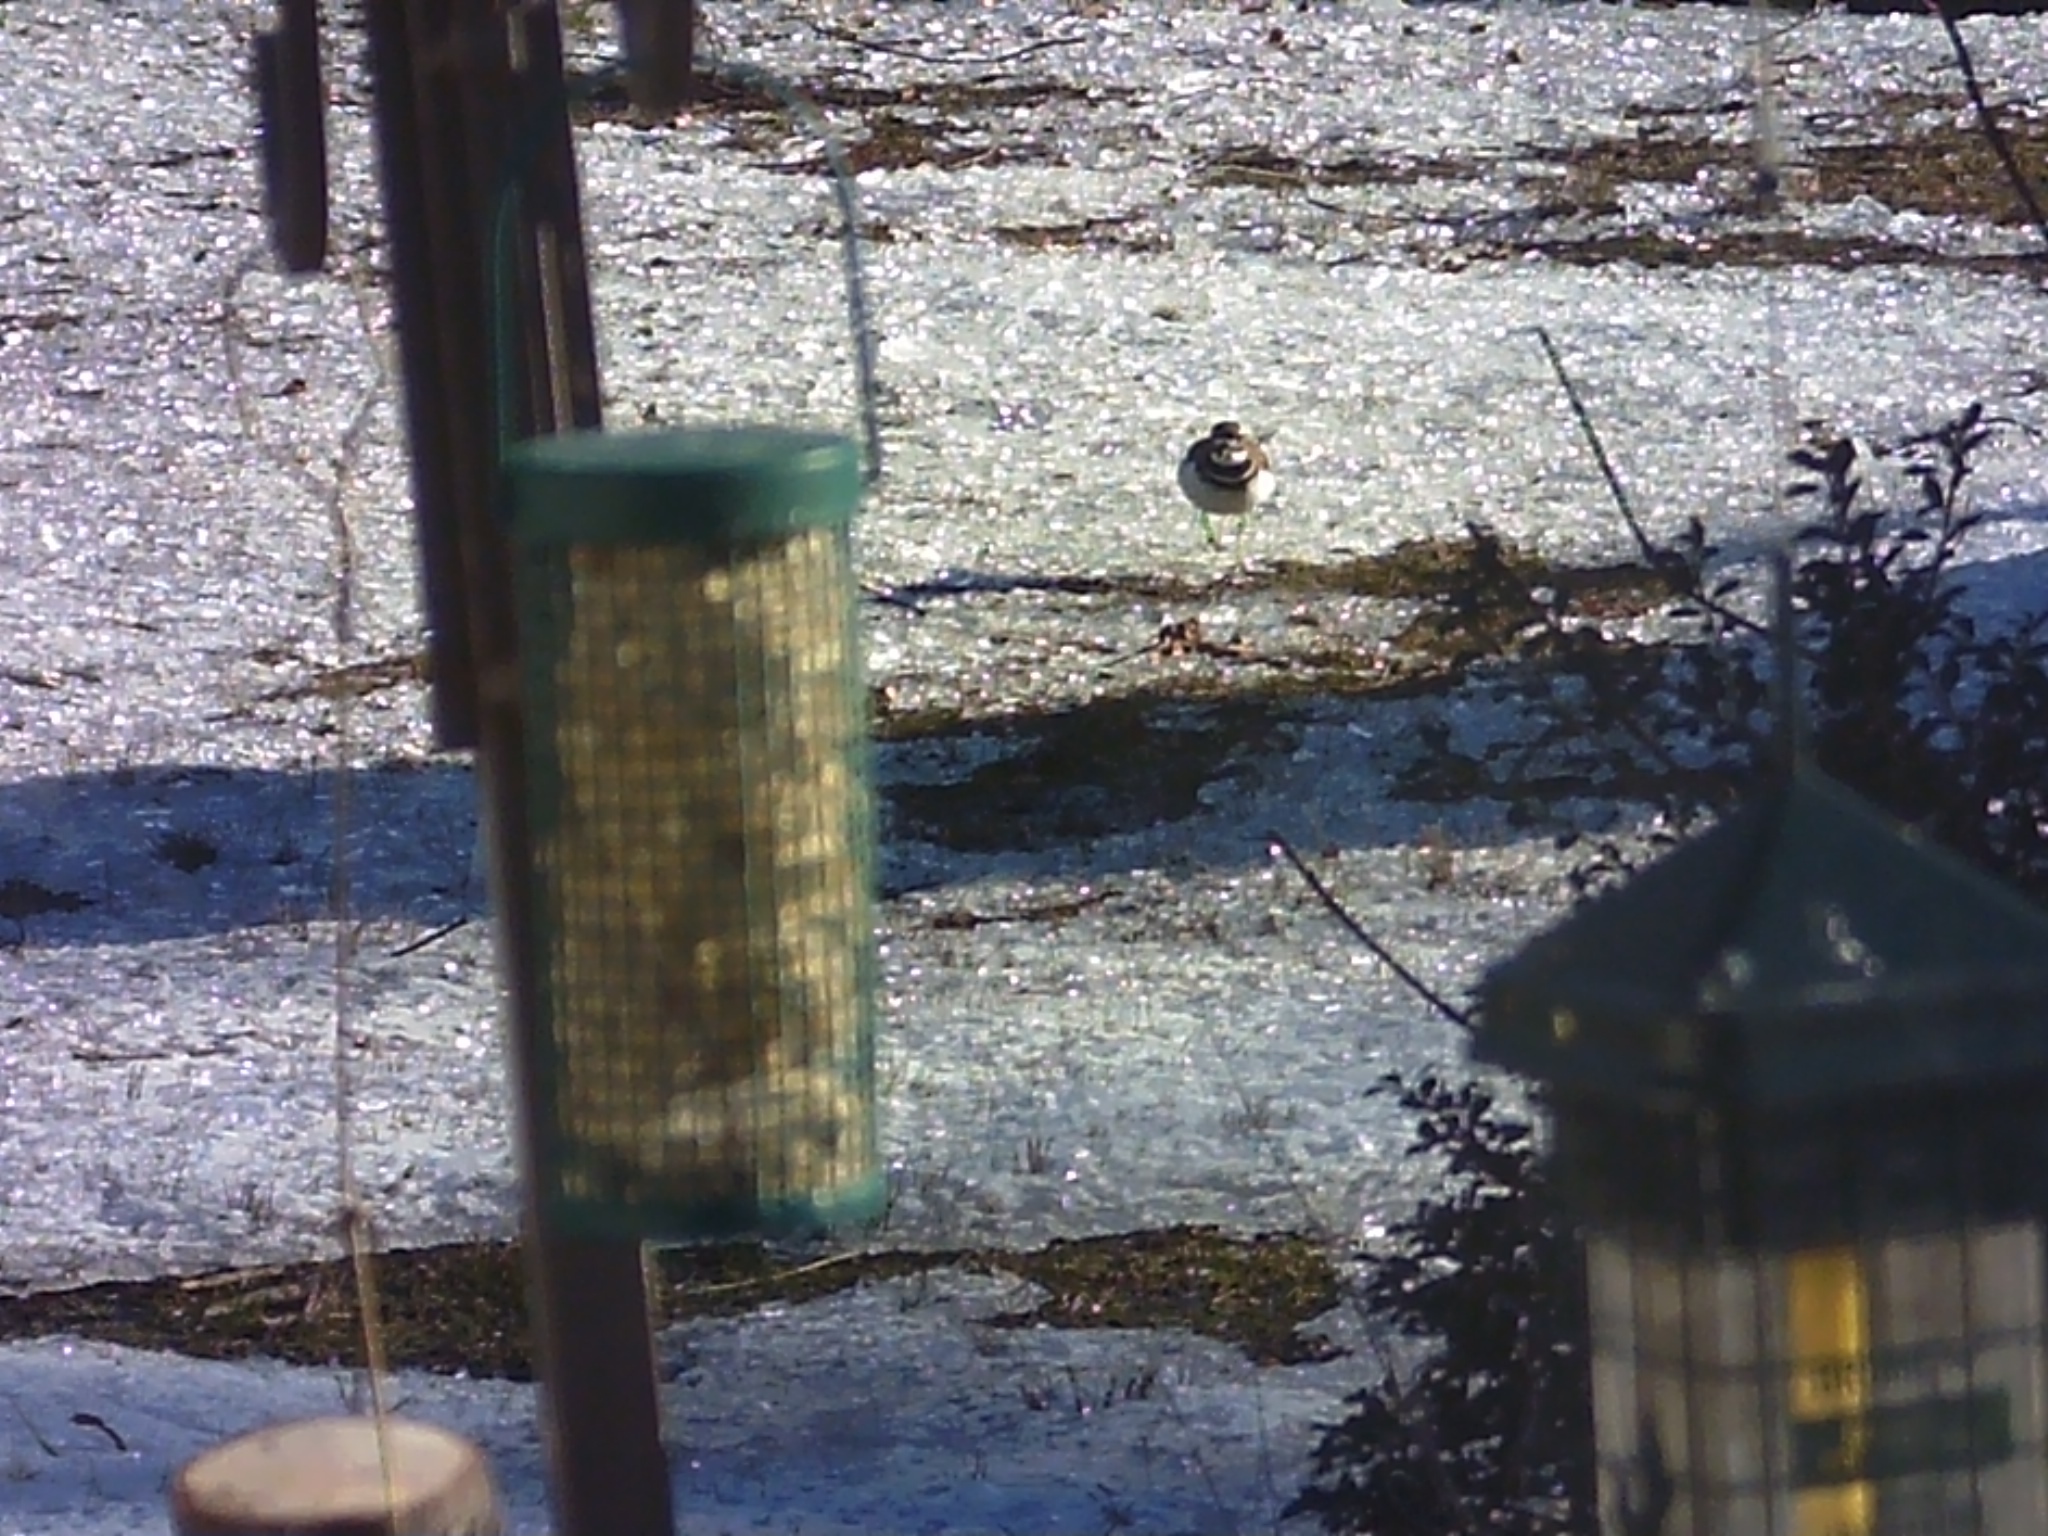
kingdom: Animalia
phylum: Chordata
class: Aves
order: Charadriiformes
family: Charadriidae
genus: Charadrius
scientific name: Charadrius vociferus
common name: Killdeer
